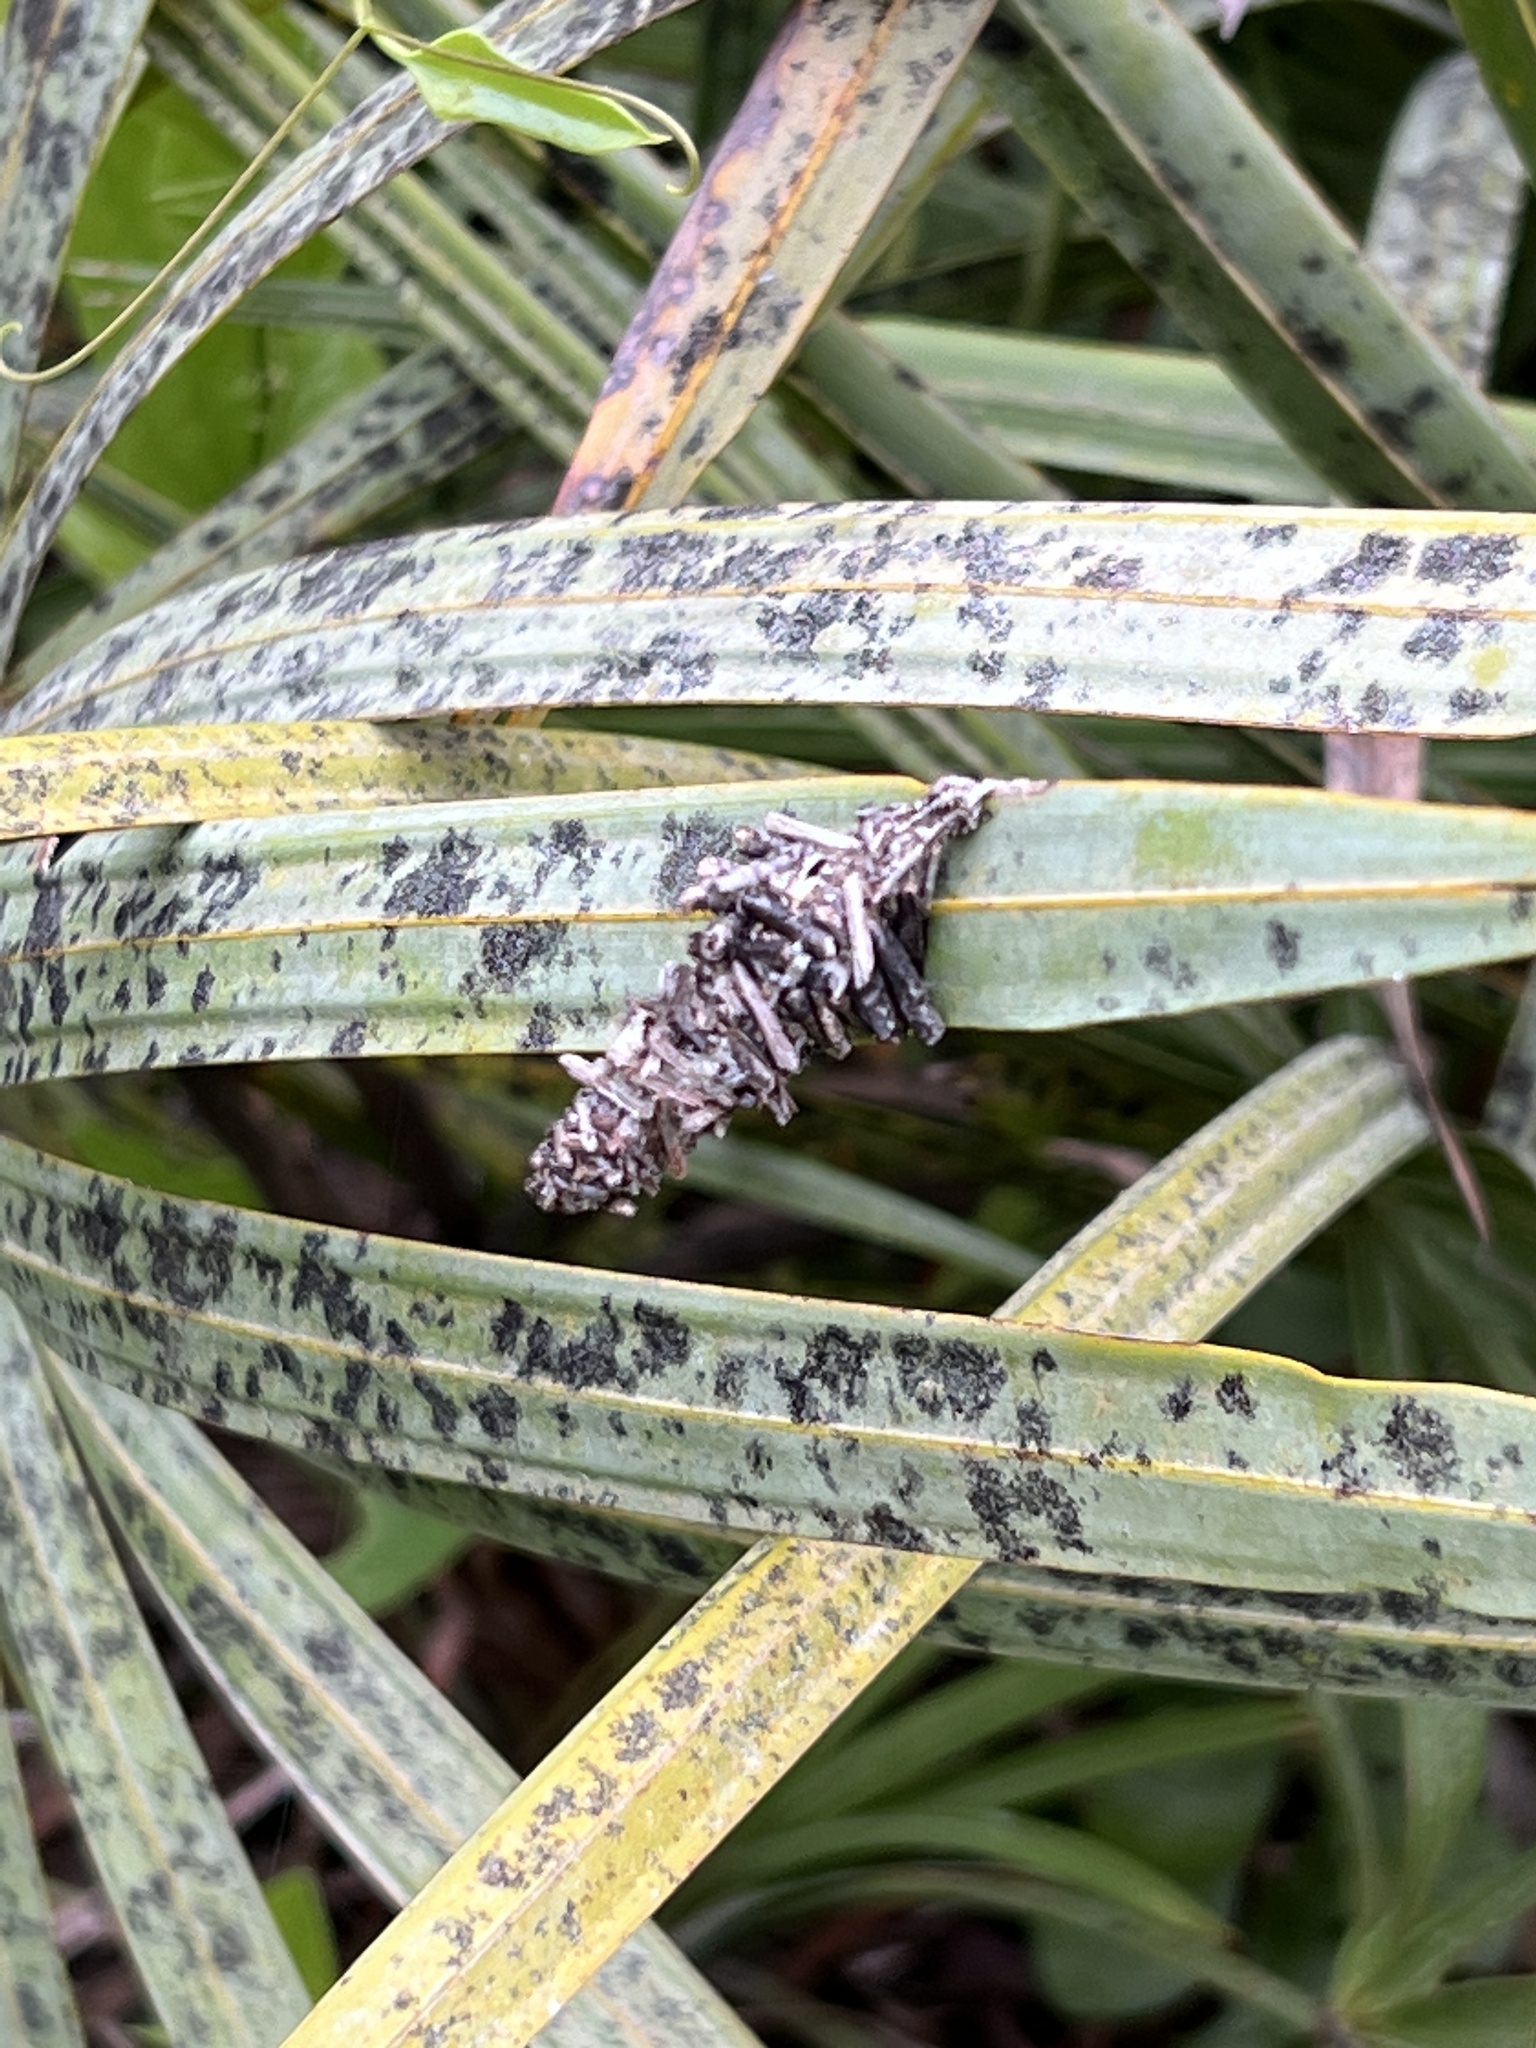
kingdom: Animalia
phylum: Arthropoda
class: Insecta
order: Lepidoptera
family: Psychidae
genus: Oiketicus
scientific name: Oiketicus
